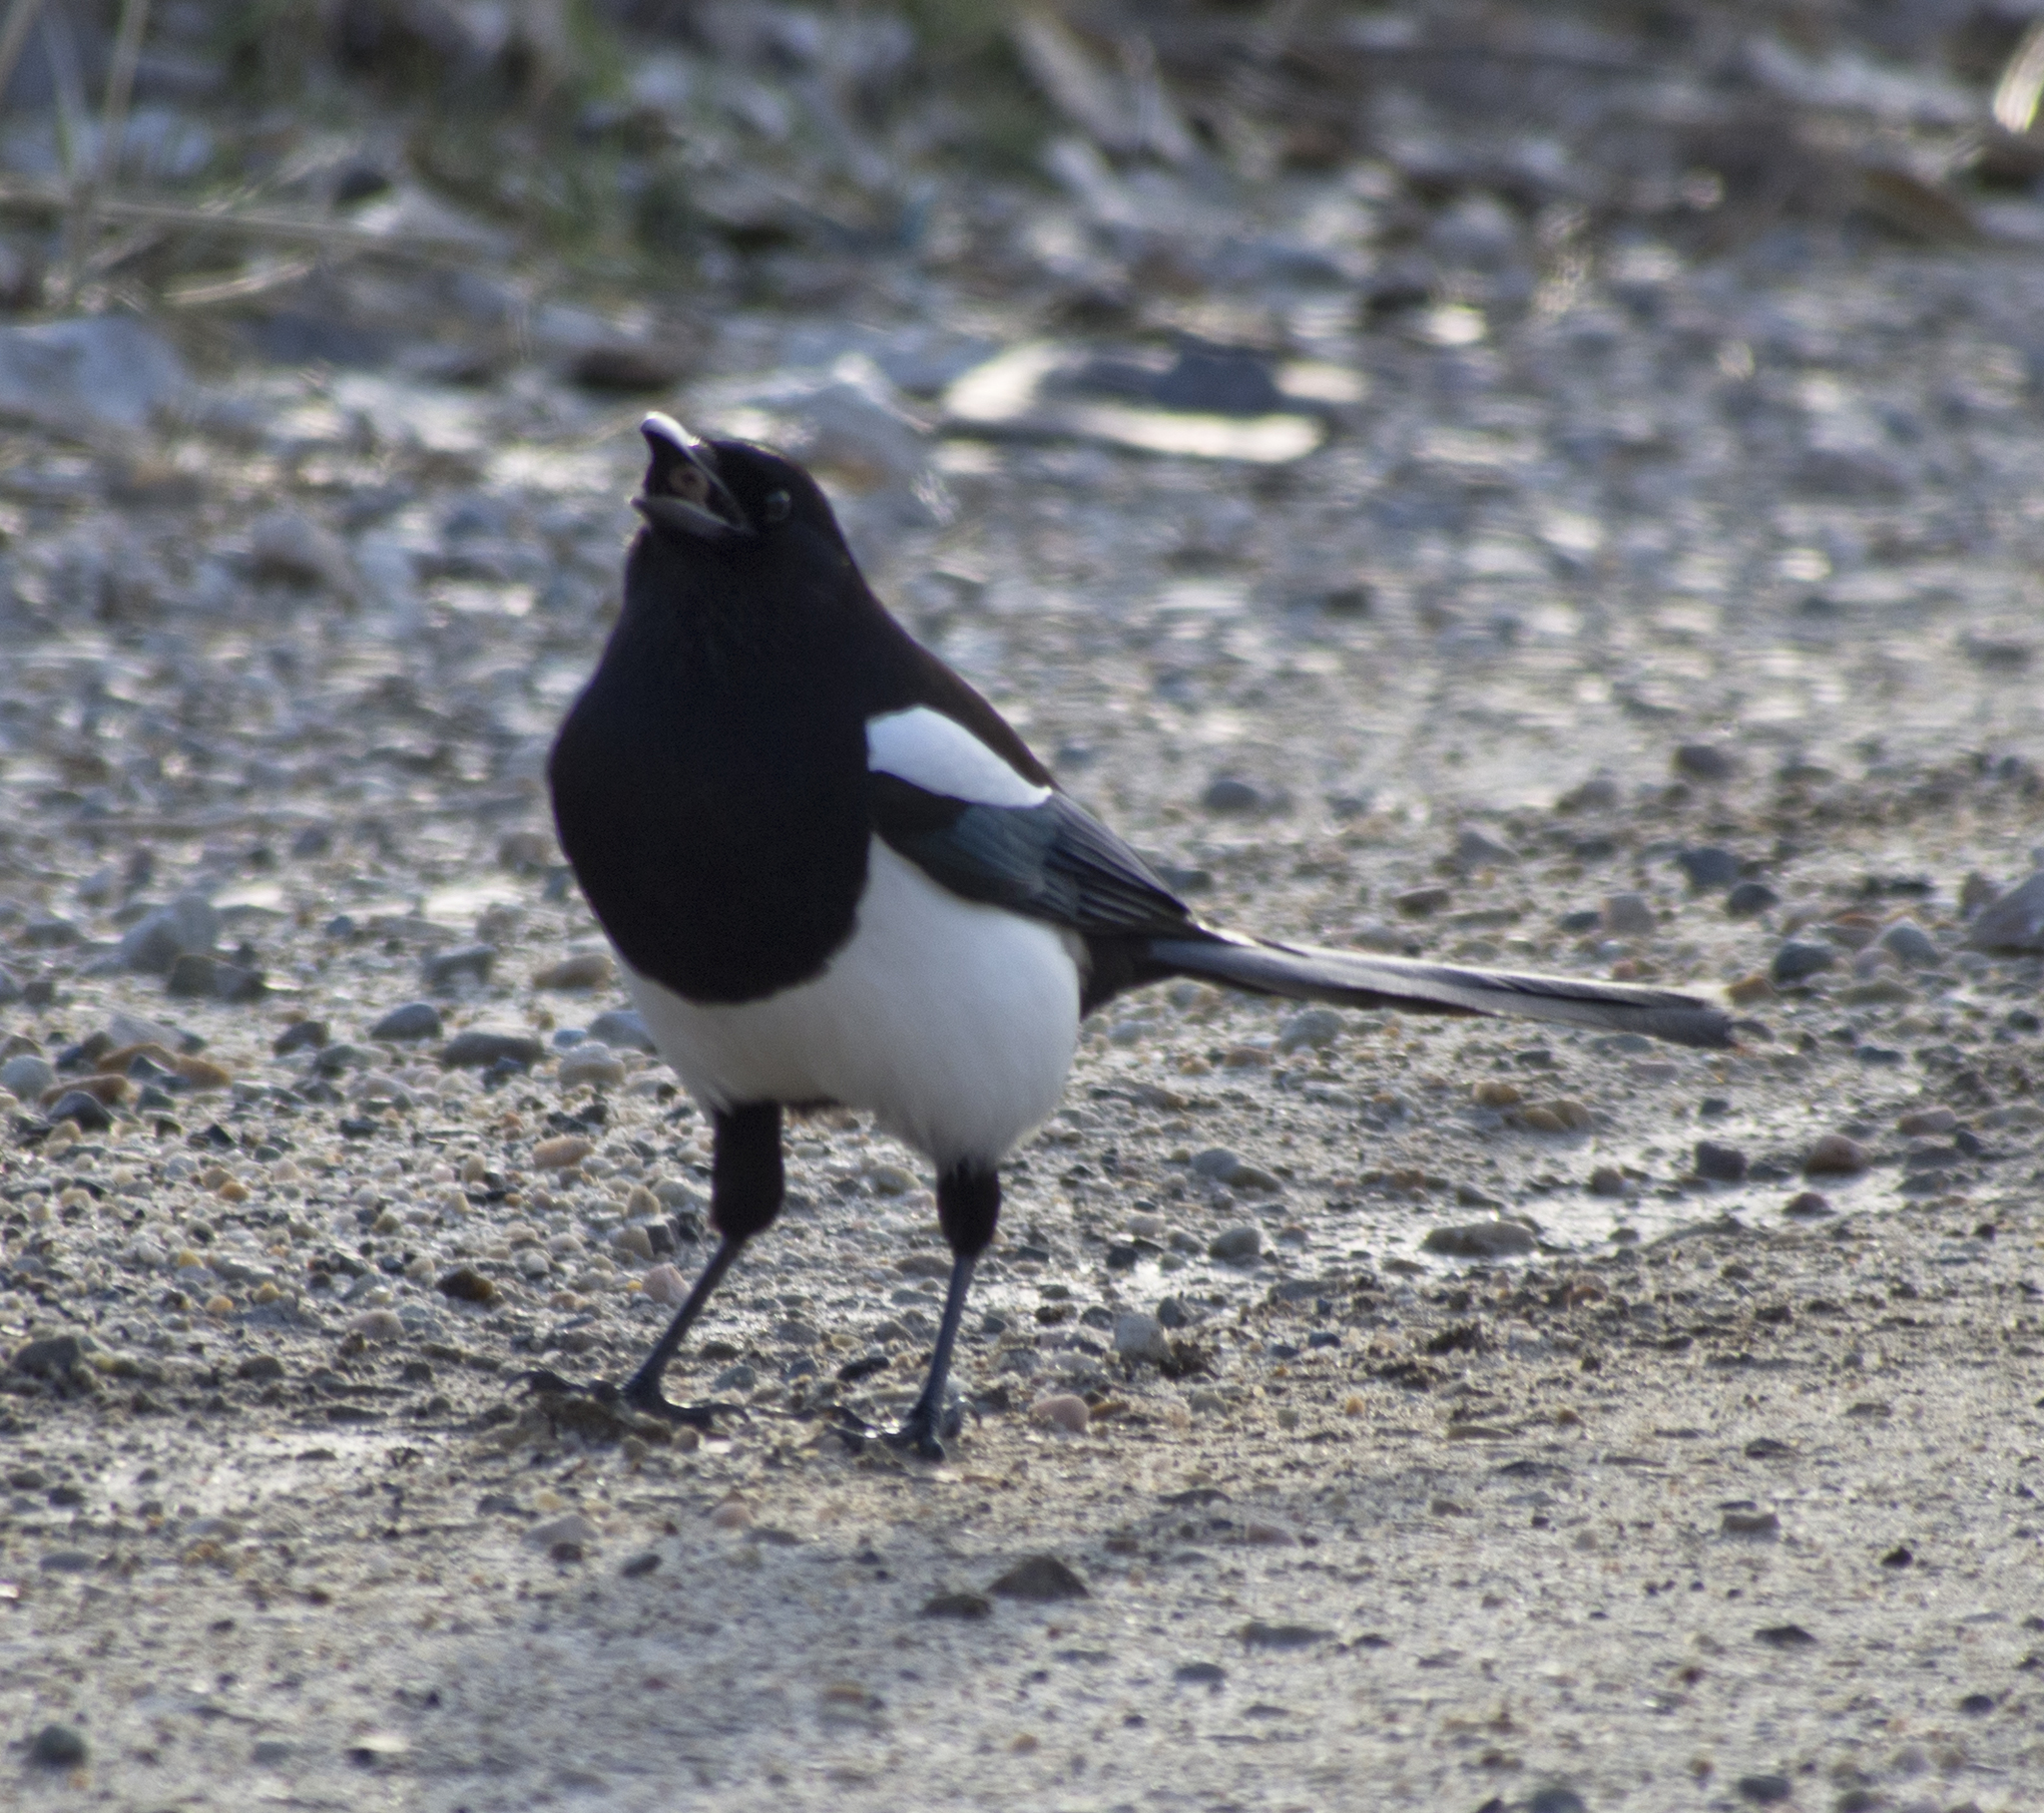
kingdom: Animalia
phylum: Chordata
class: Aves
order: Passeriformes
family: Corvidae
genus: Pica
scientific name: Pica hudsonia
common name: Black-billed magpie
